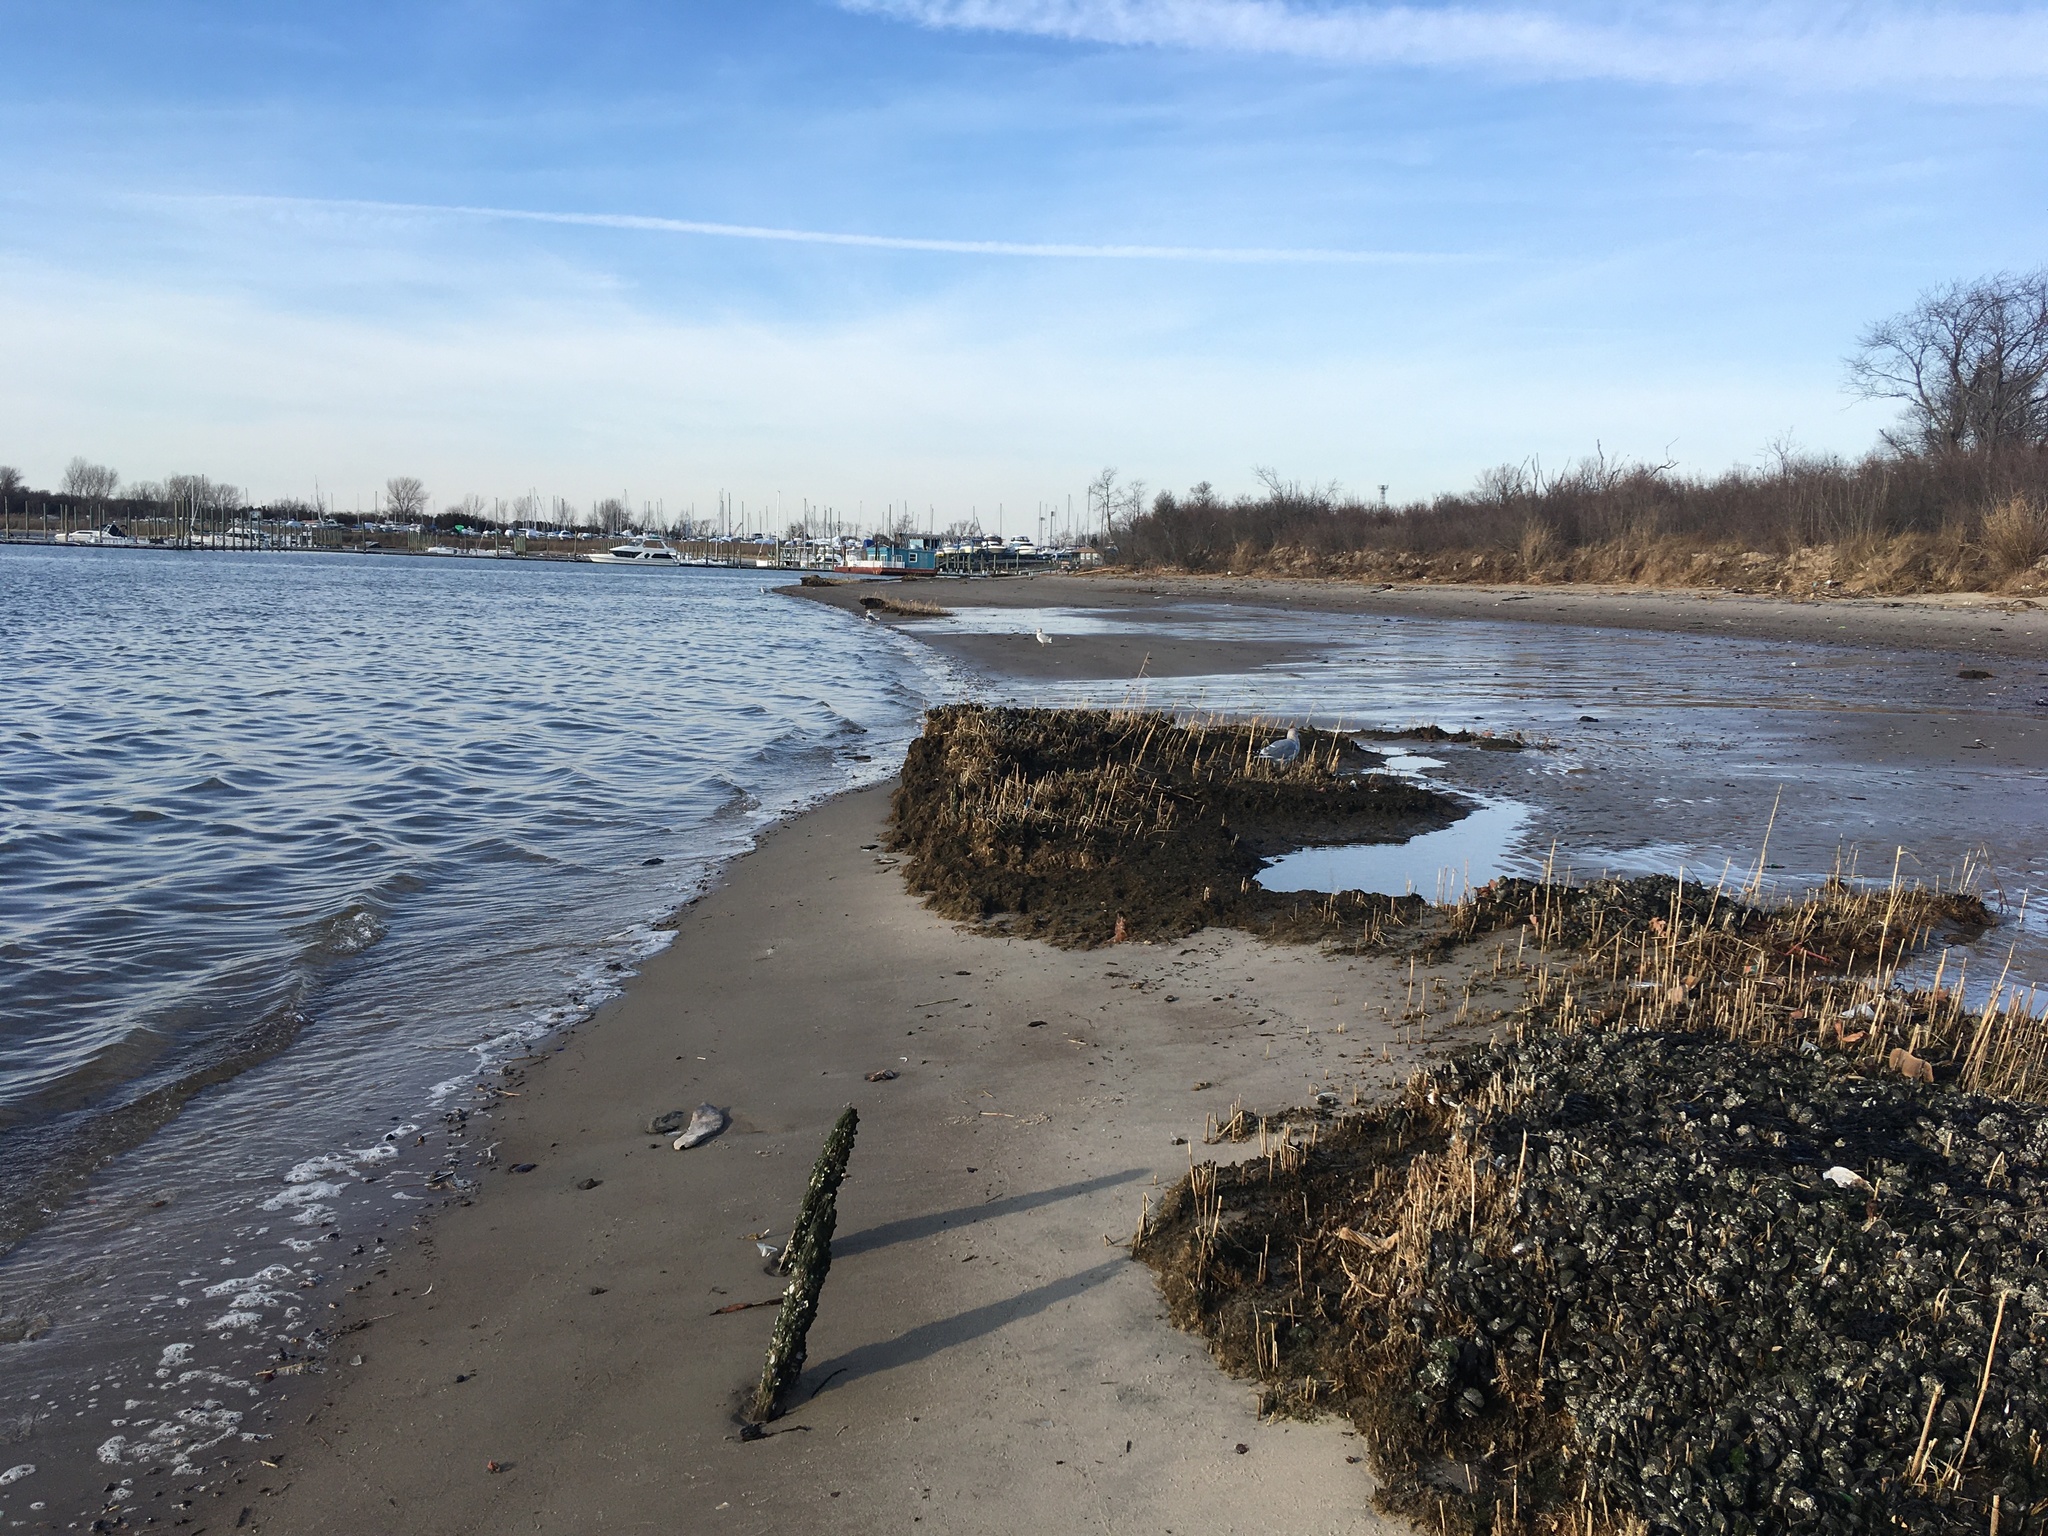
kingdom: Animalia
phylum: Chordata
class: Aves
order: Charadriiformes
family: Laridae
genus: Larus
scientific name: Larus argentatus
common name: Herring gull
